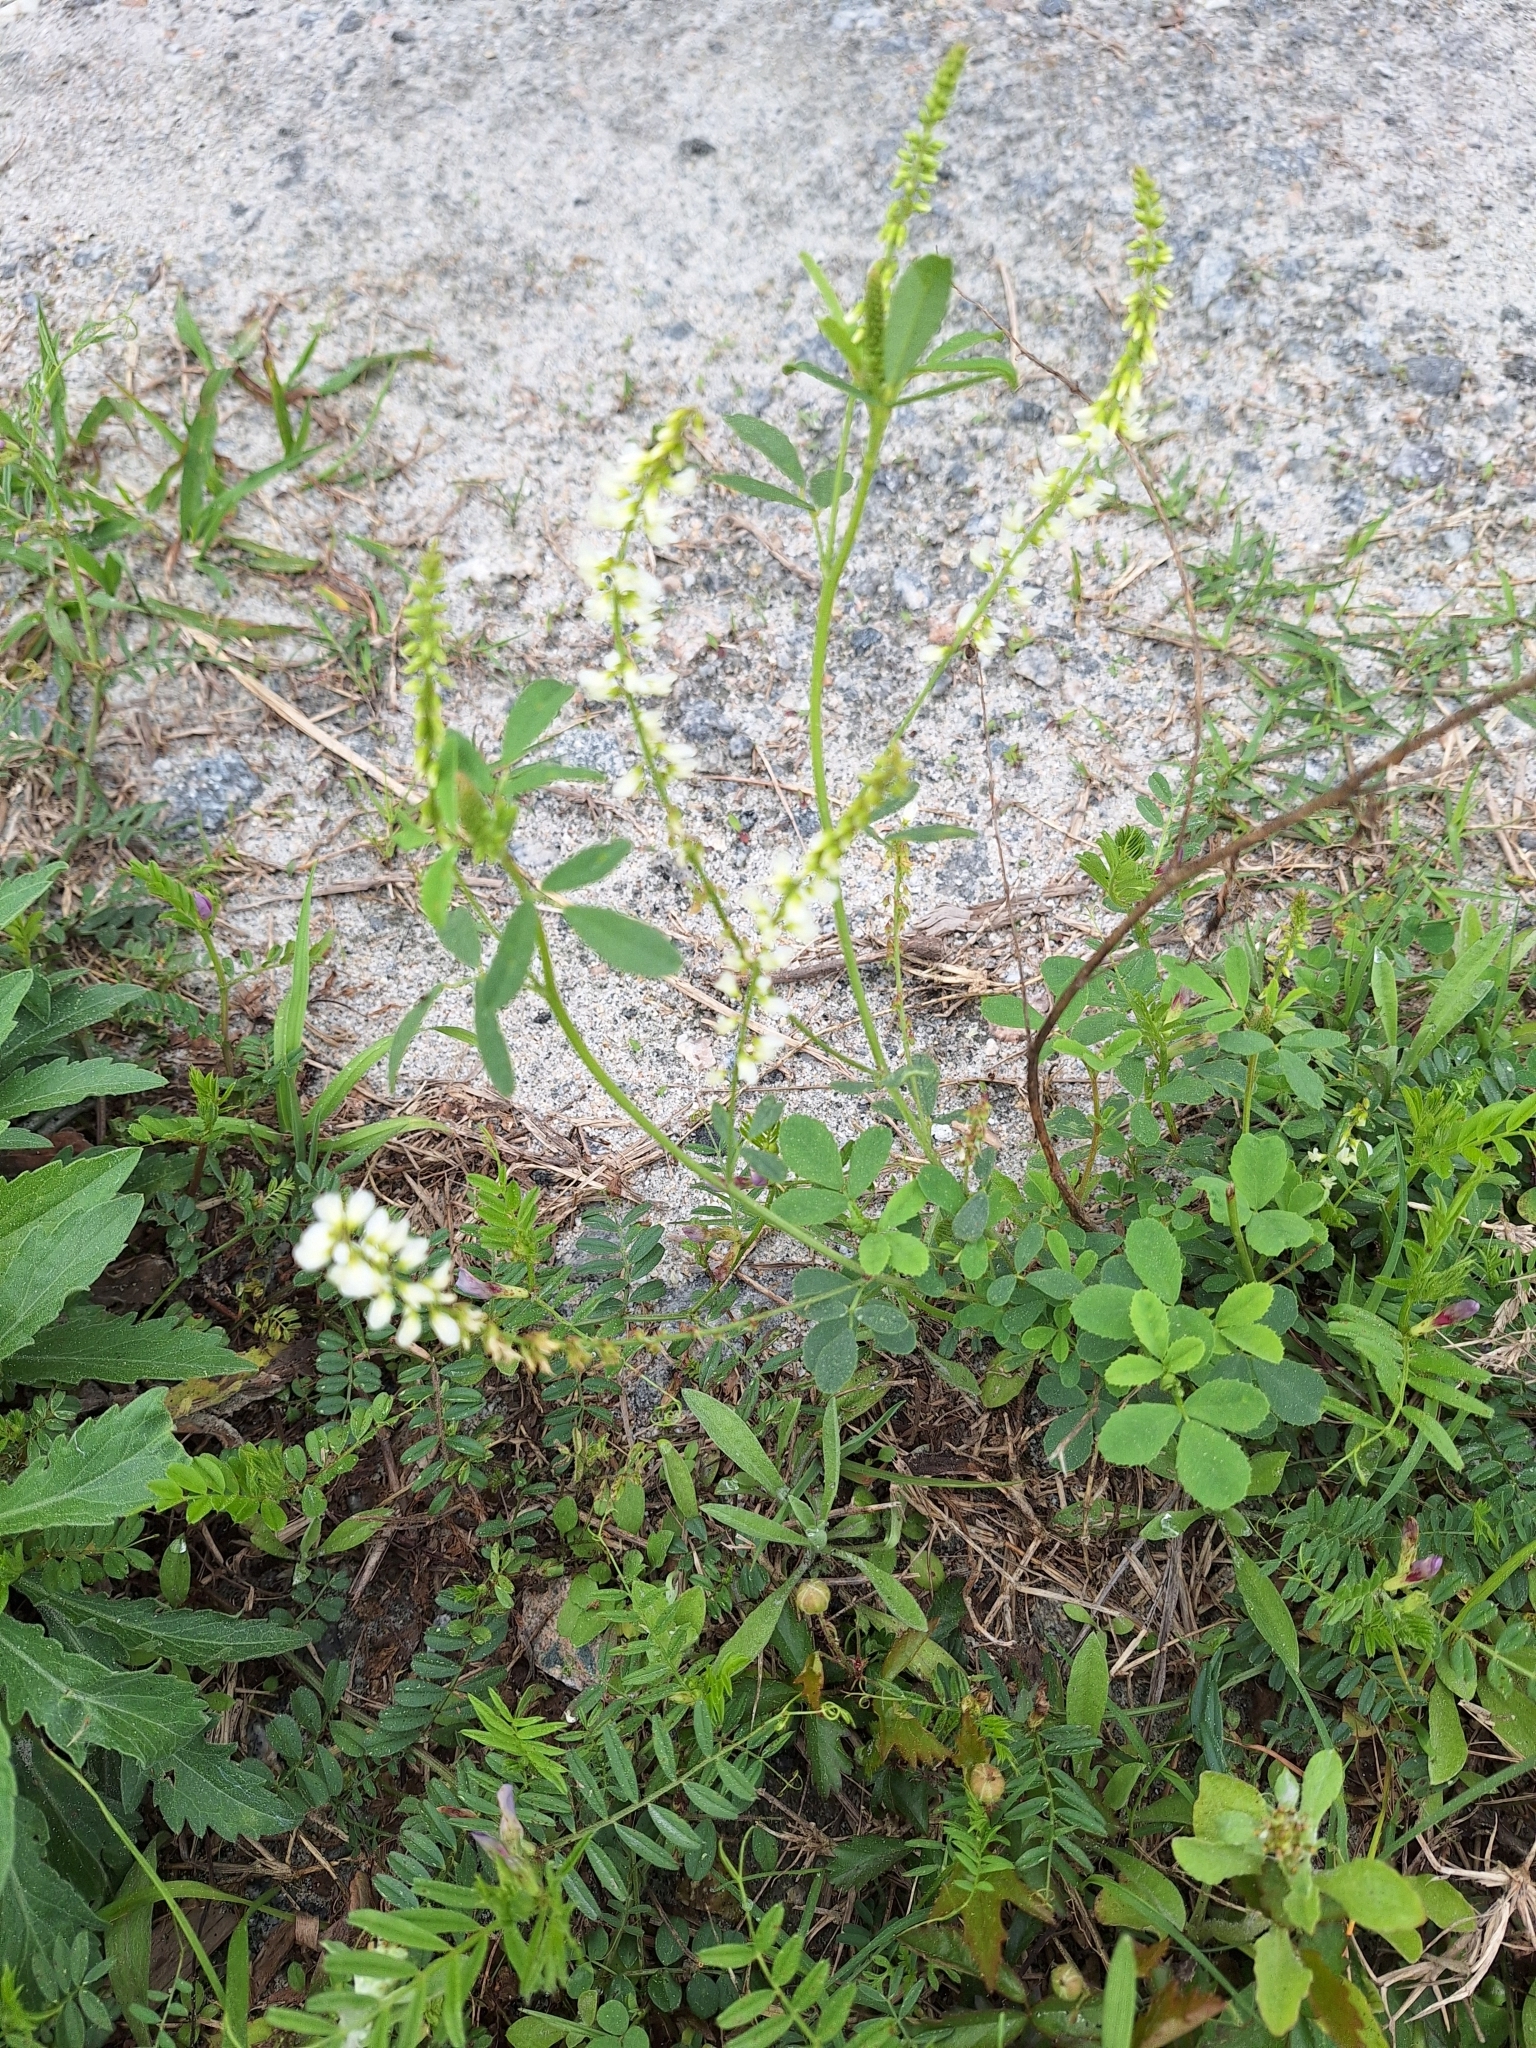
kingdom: Plantae
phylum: Tracheophyta
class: Magnoliopsida
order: Fabales
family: Fabaceae
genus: Melilotus
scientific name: Melilotus albus
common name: White melilot
